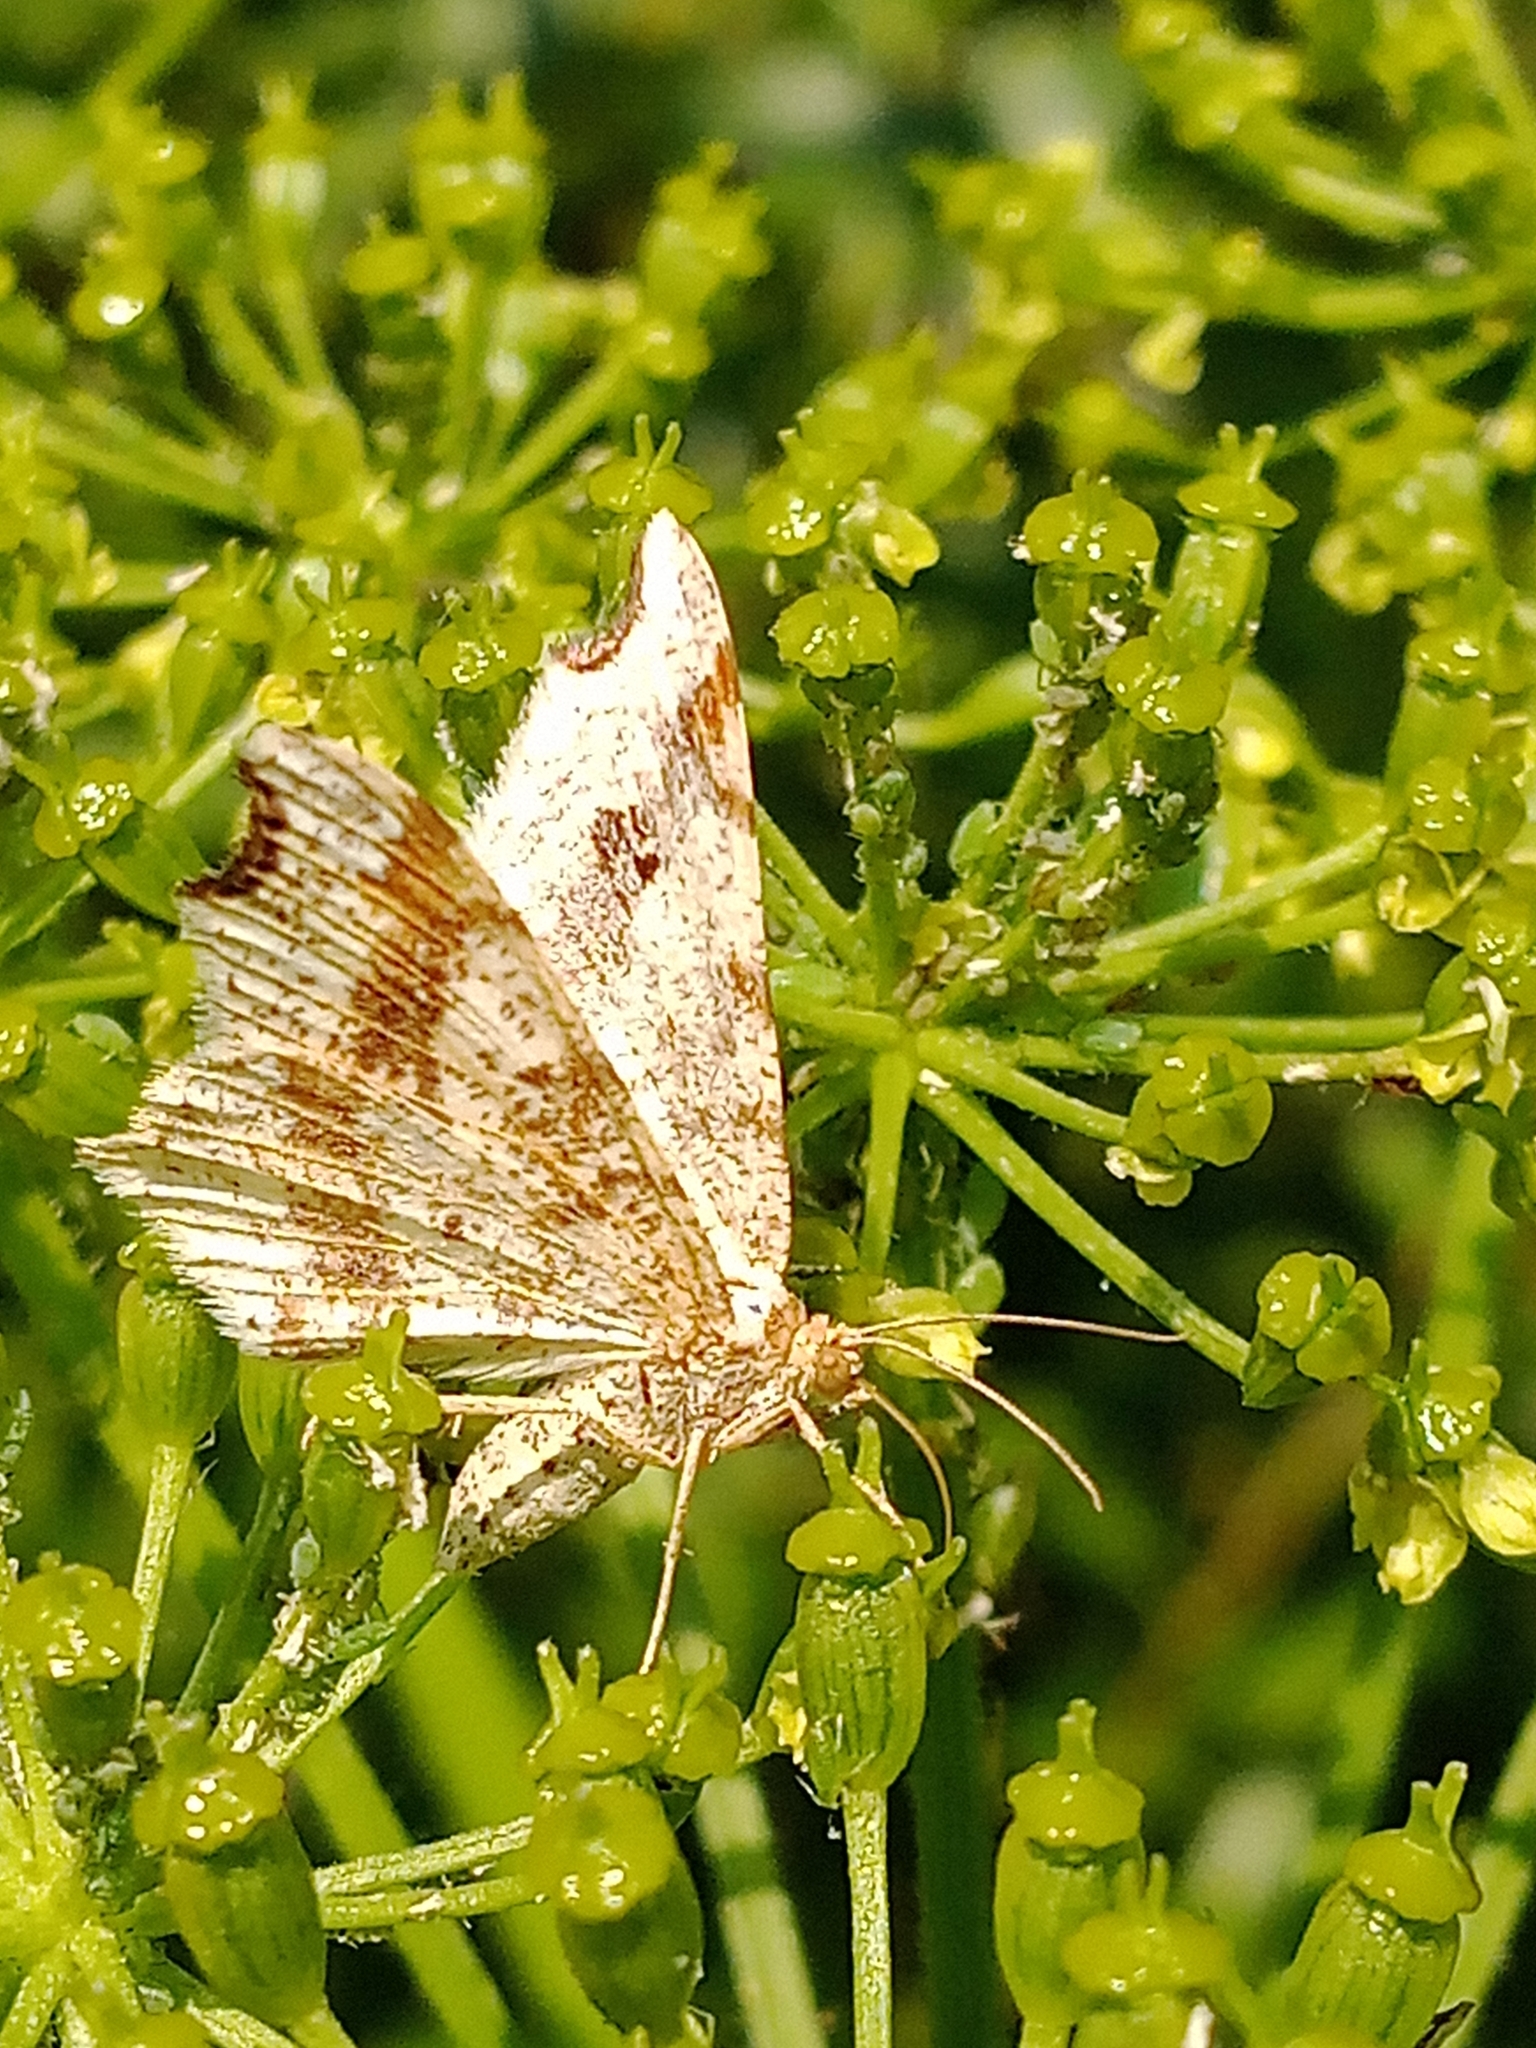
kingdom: Animalia
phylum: Arthropoda
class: Insecta
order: Lepidoptera
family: Geometridae
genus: Macaria
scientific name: Macaria alternata
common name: Sharp-angled peacock
